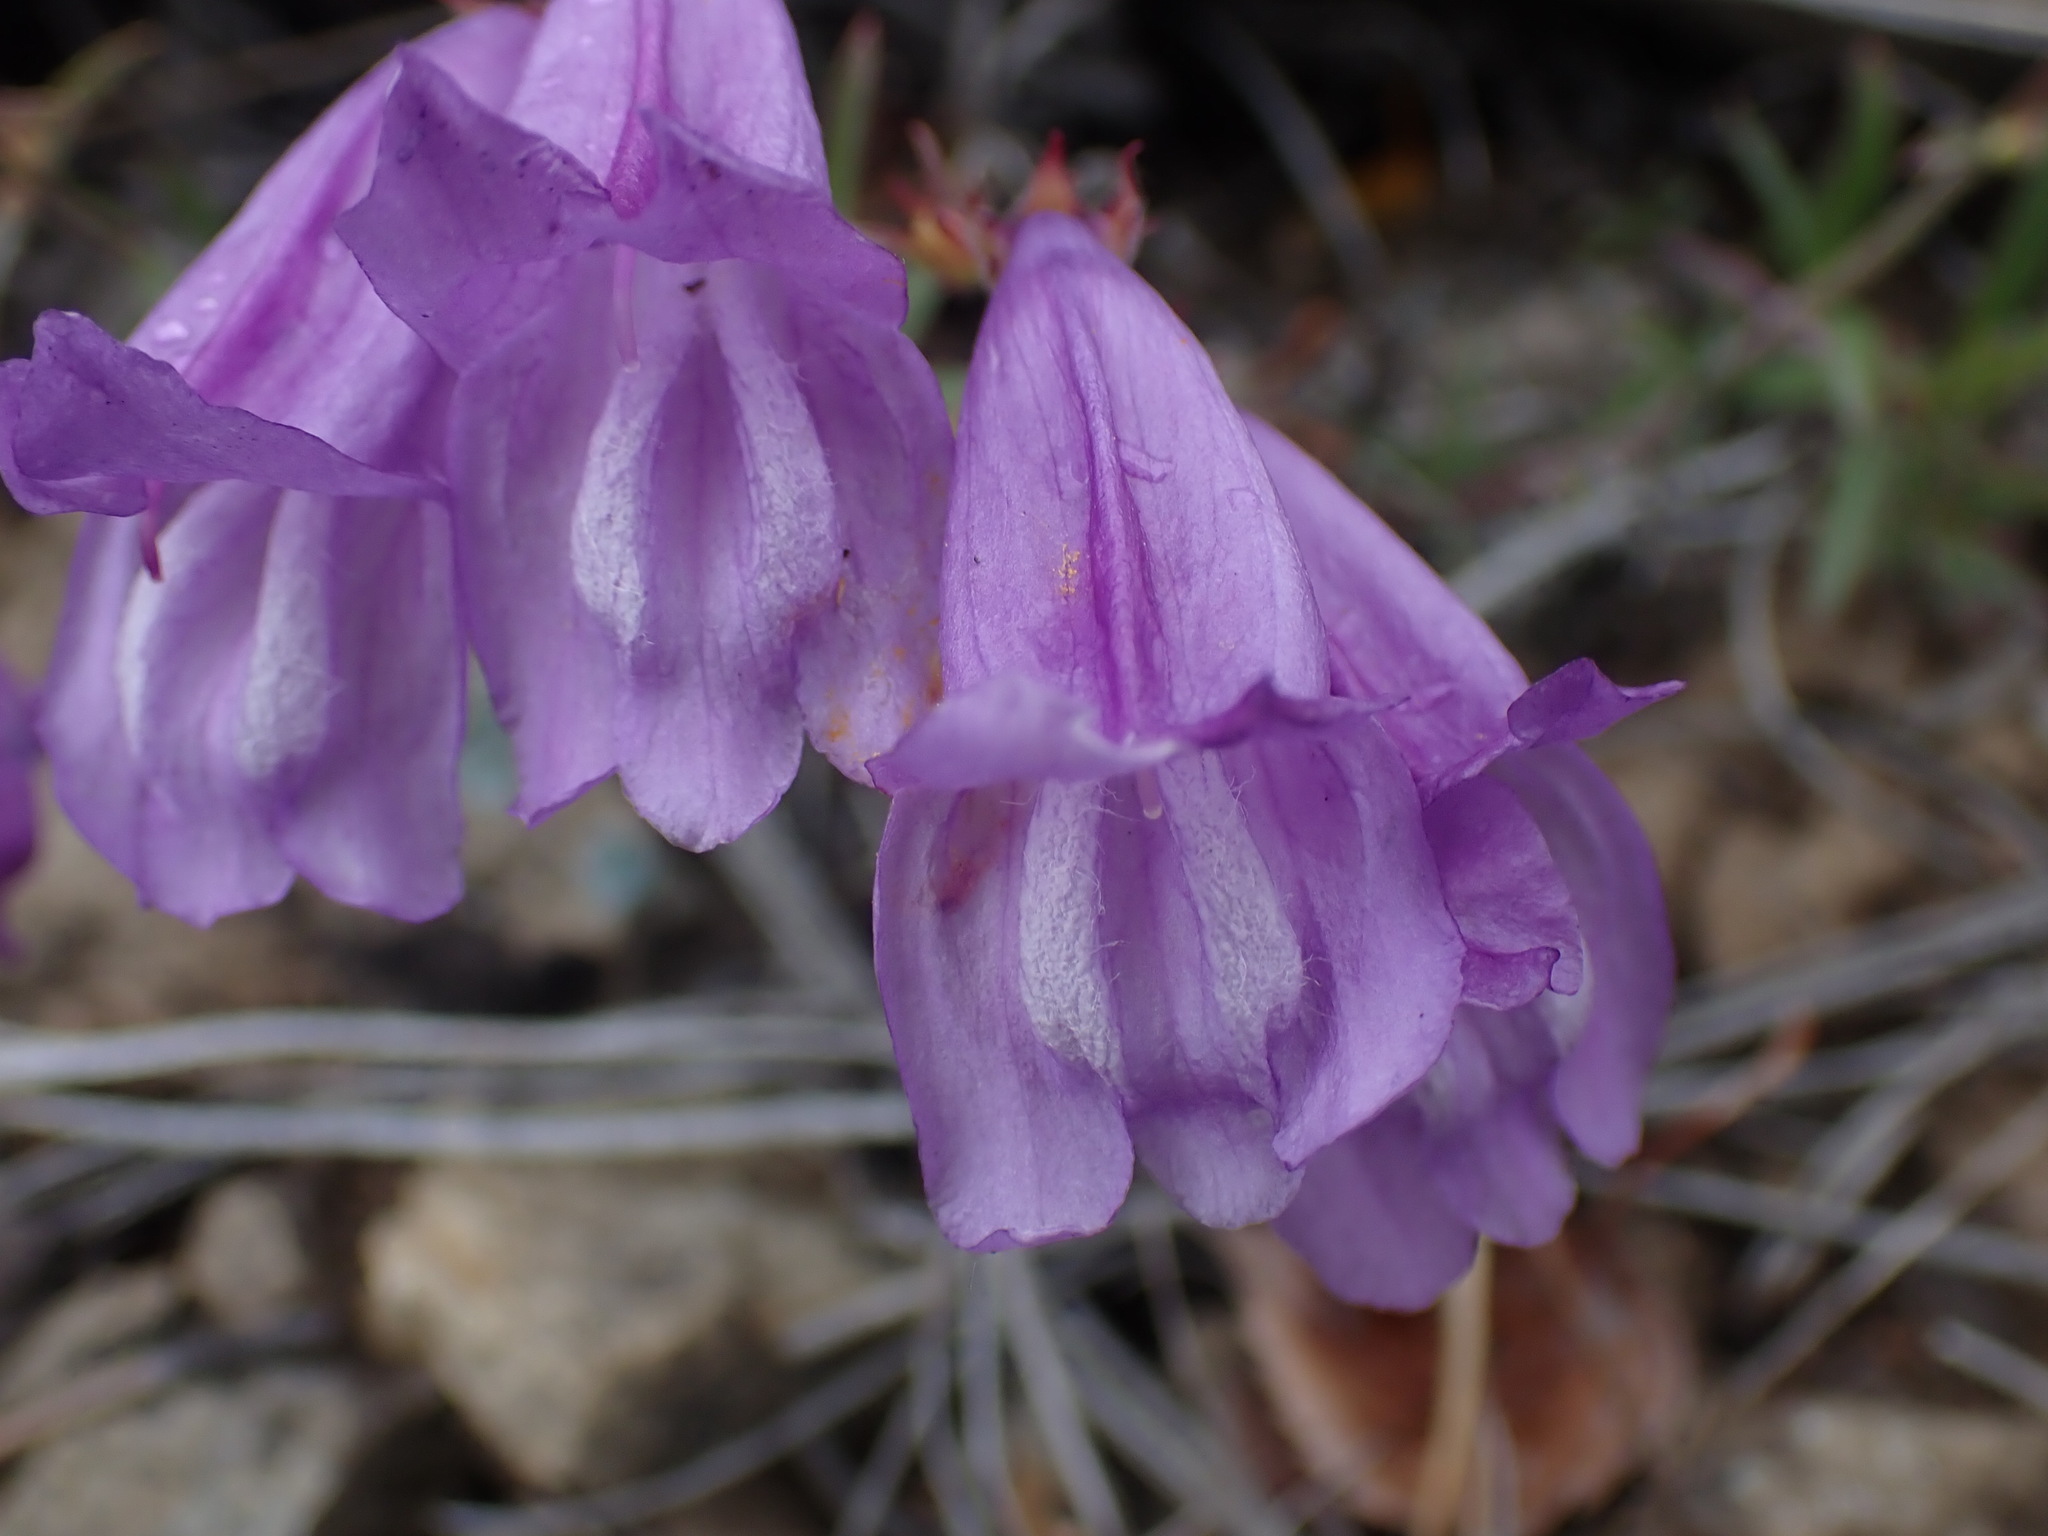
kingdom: Plantae
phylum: Tracheophyta
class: Magnoliopsida
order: Lamiales
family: Plantaginaceae
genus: Penstemon
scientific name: Penstemon fruticosus
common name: Bush penstemon
